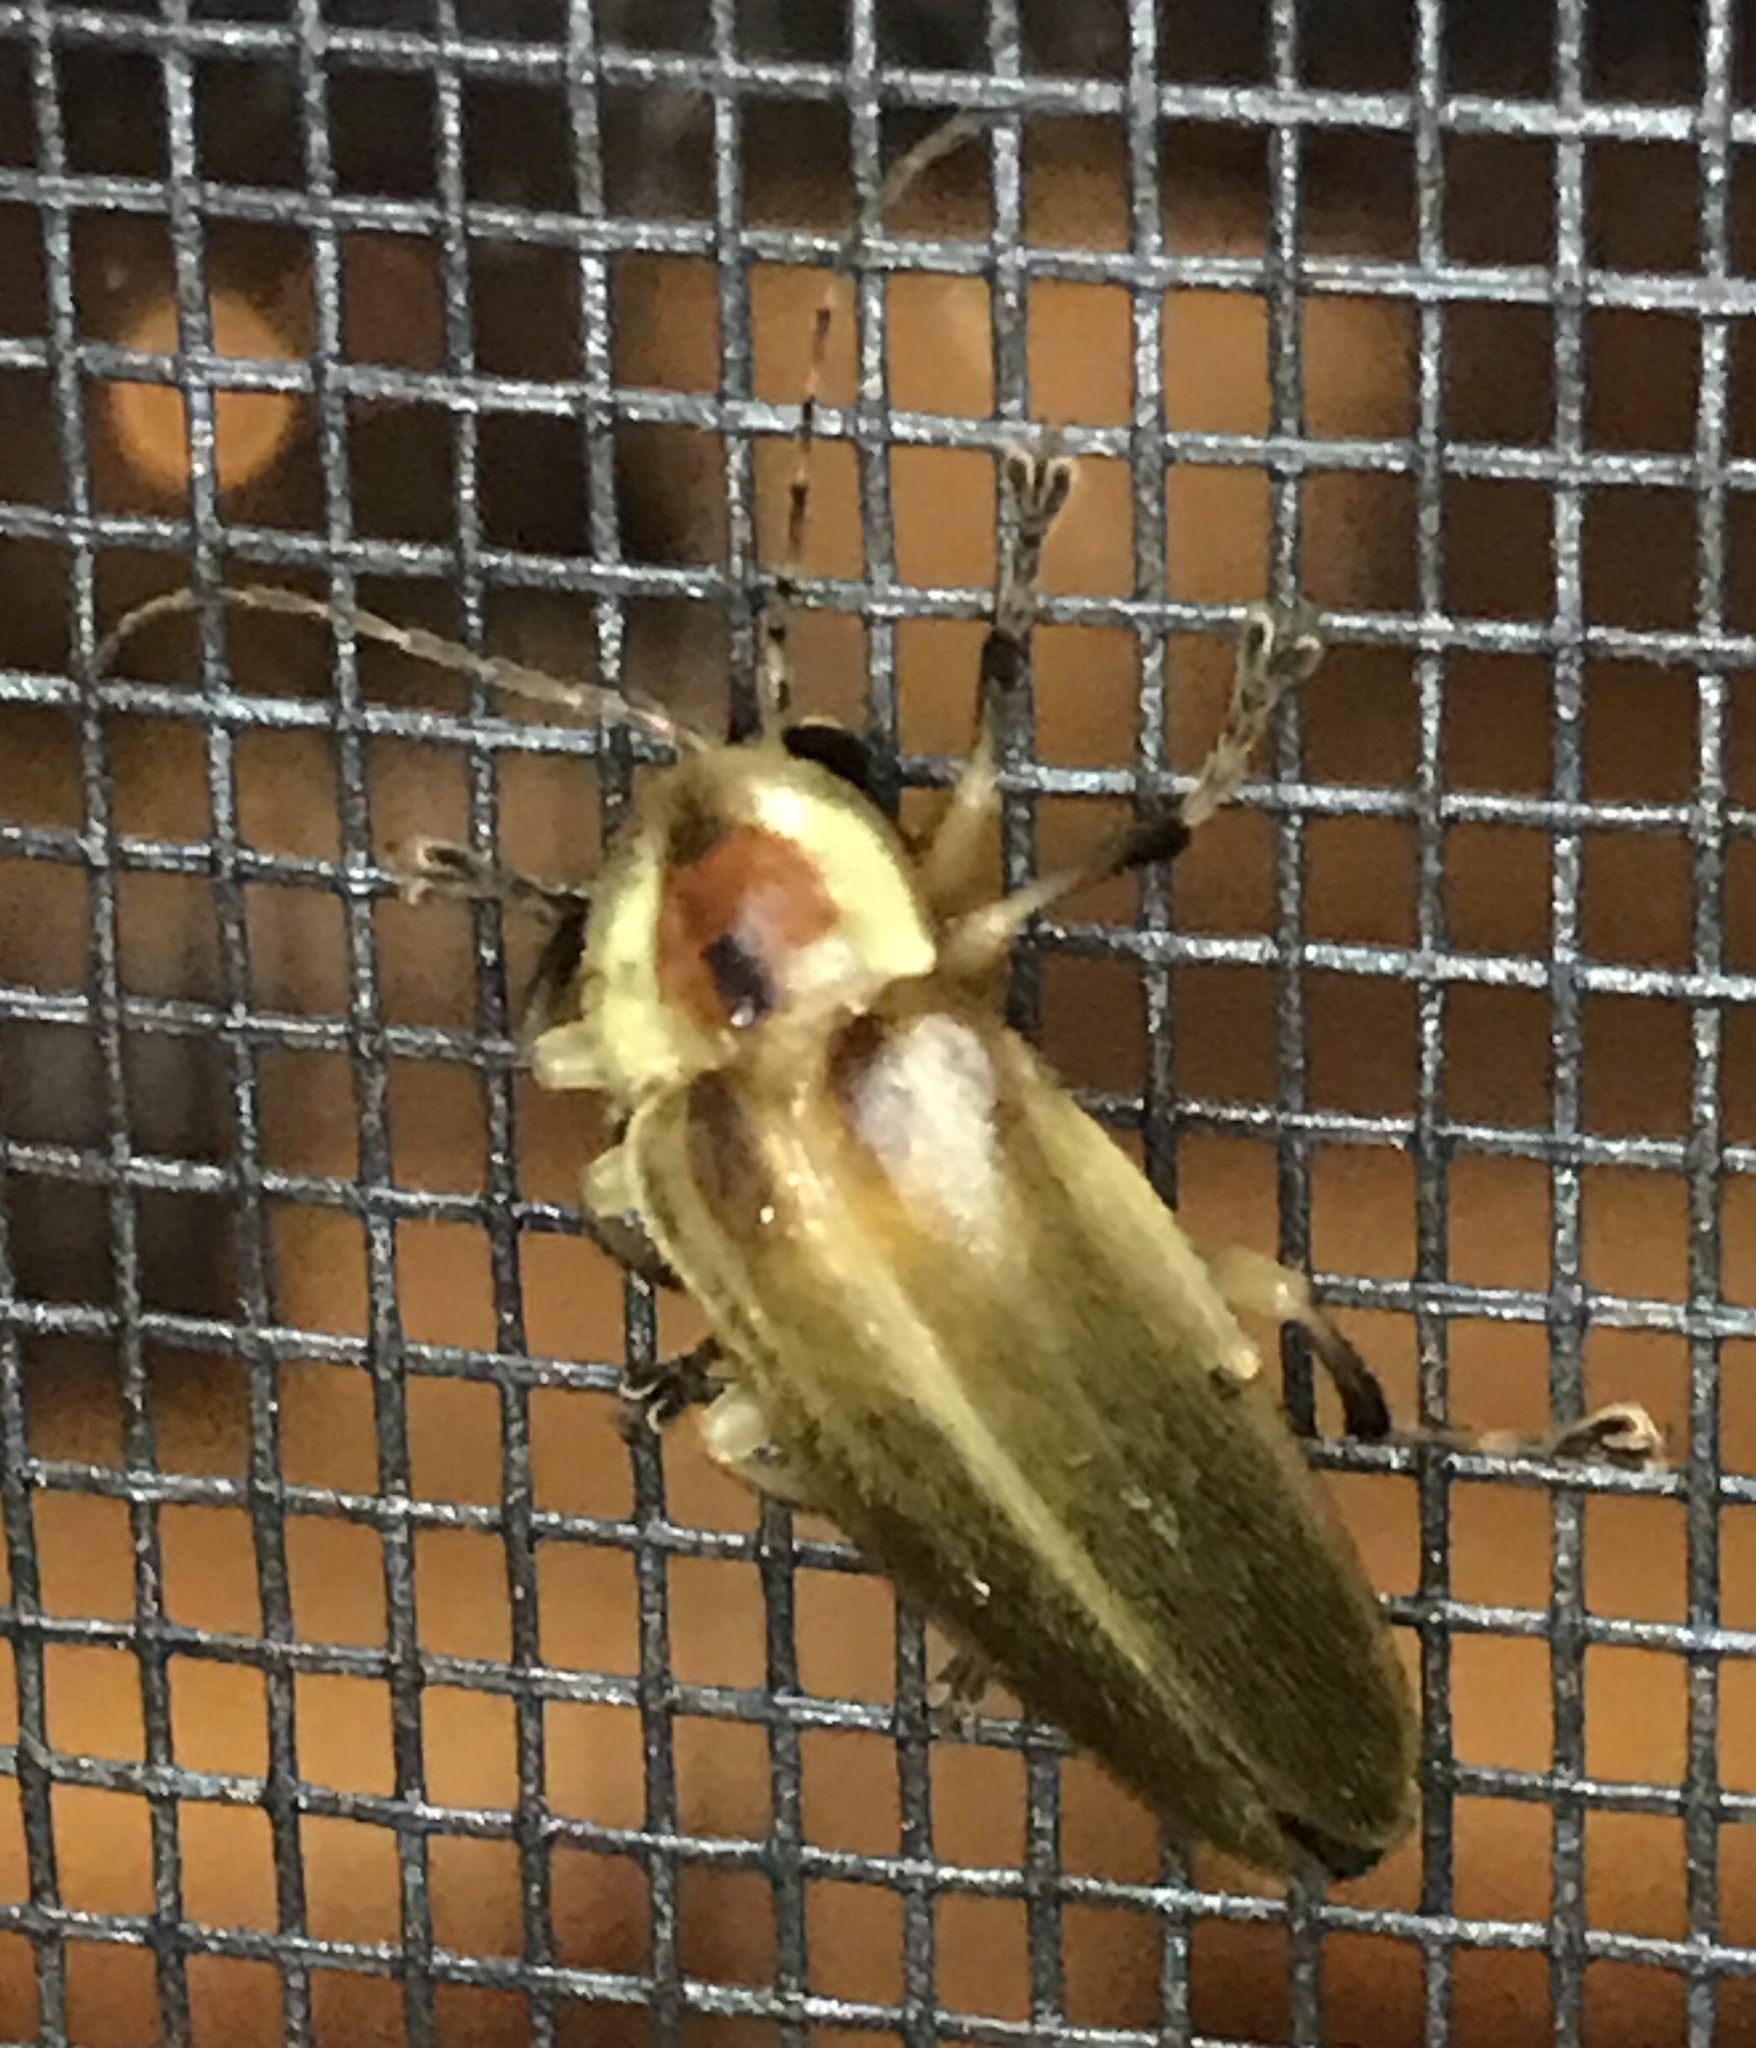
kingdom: Animalia
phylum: Arthropoda
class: Insecta
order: Coleoptera
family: Lampyridae
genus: Photuris
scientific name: Photuris
